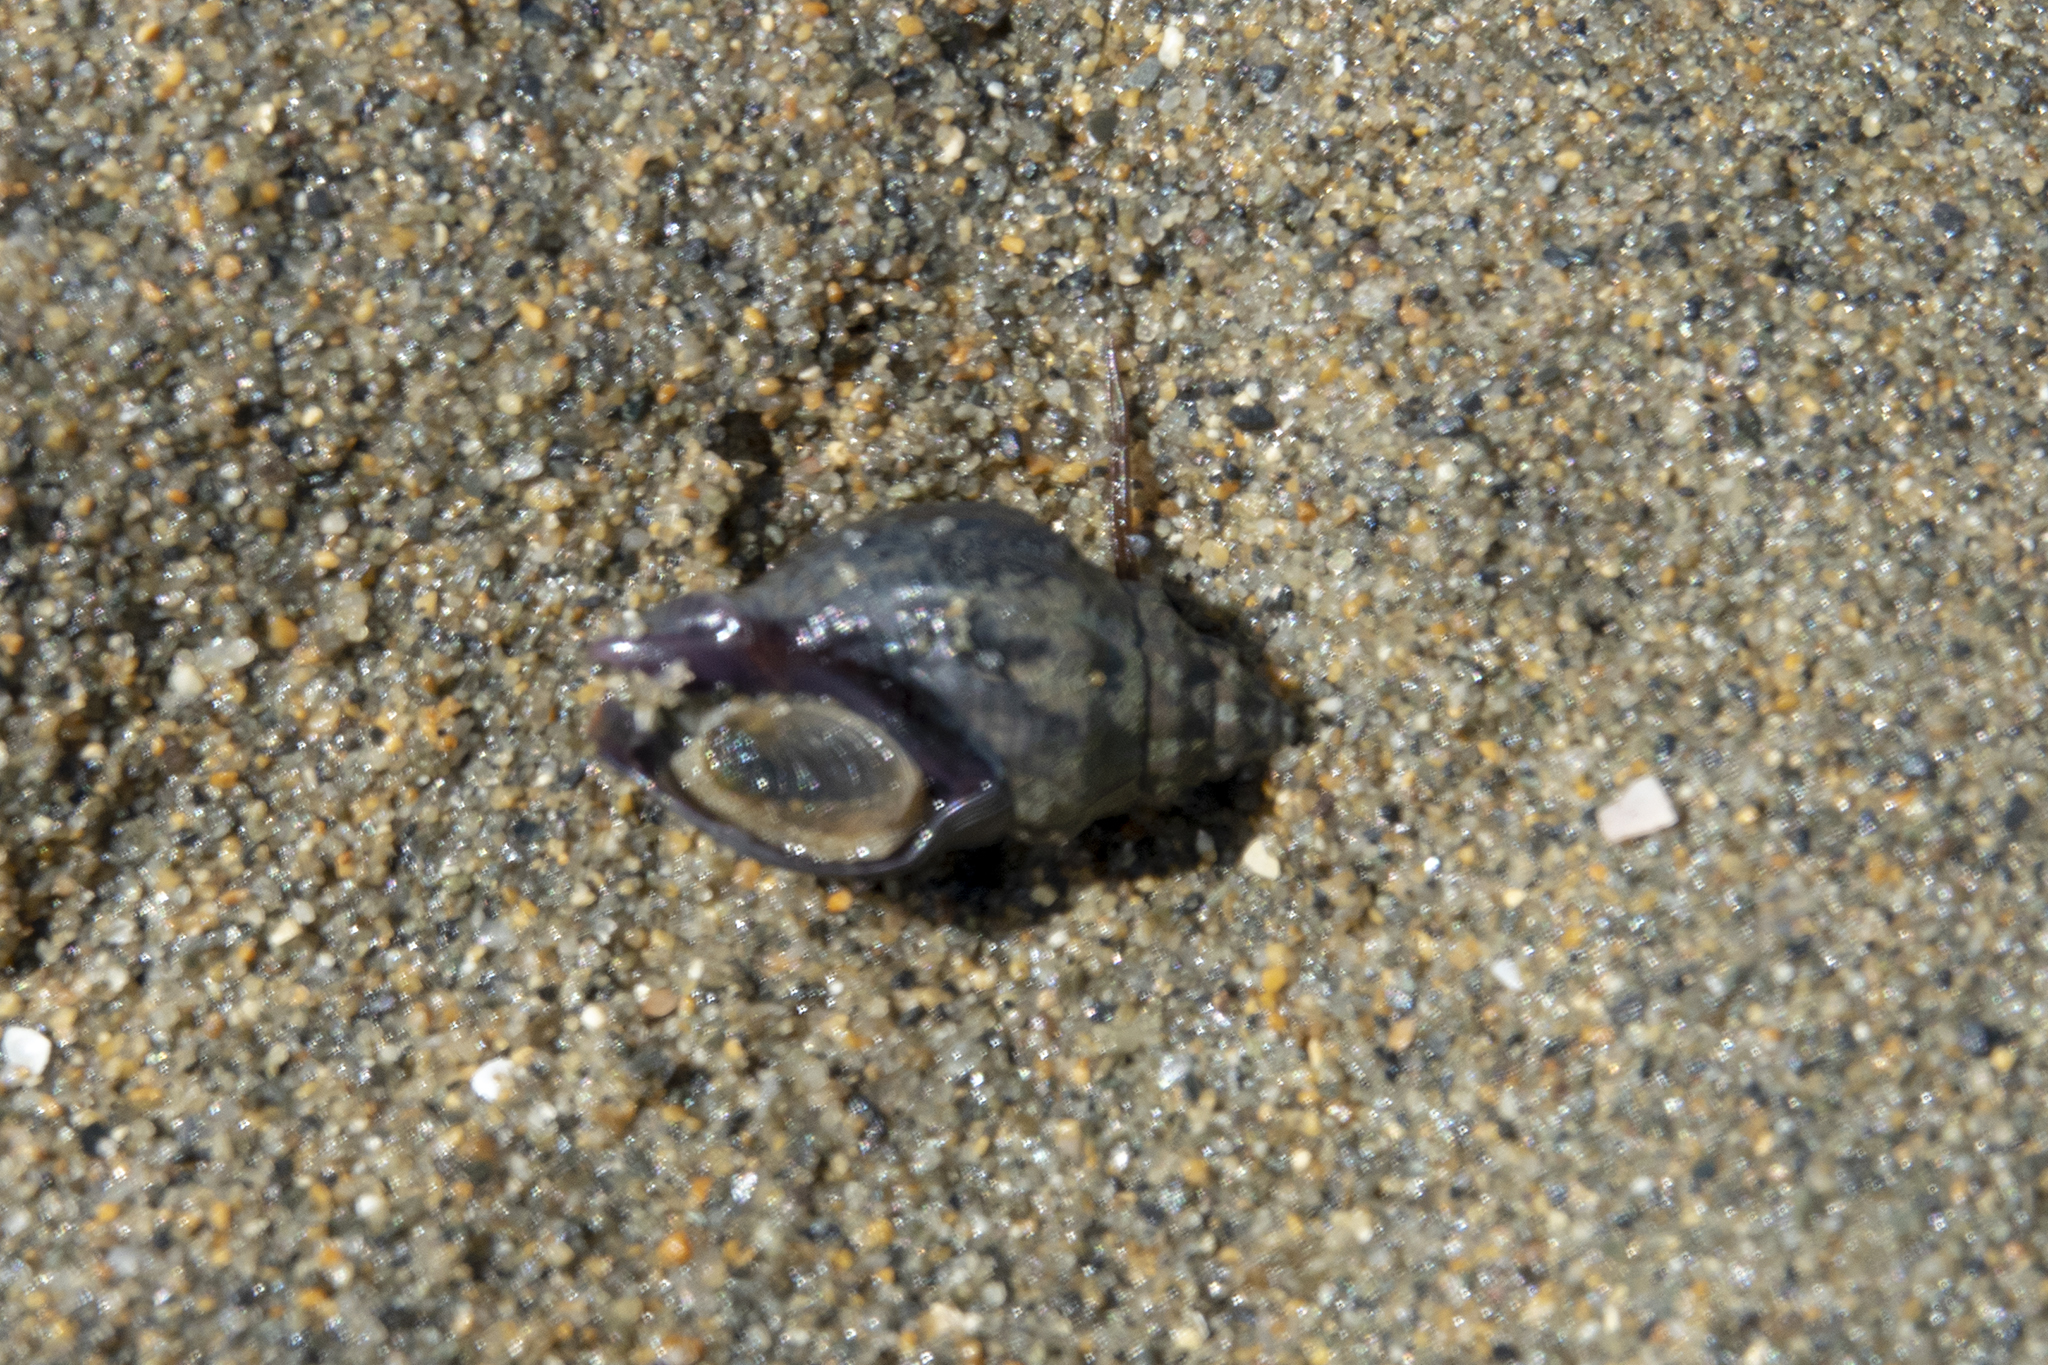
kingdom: Animalia
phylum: Mollusca
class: Gastropoda
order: Neogastropoda
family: Cominellidae
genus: Cominella
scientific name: Cominella glandiformis
